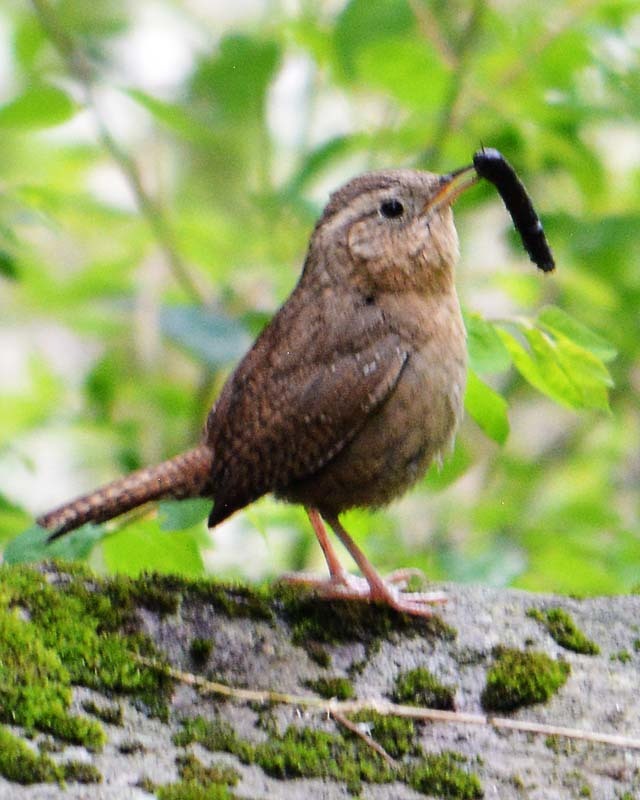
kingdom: Animalia
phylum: Chordata
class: Aves
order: Passeriformes
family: Troglodytidae
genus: Troglodytes
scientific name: Troglodytes aedon
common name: House wren
